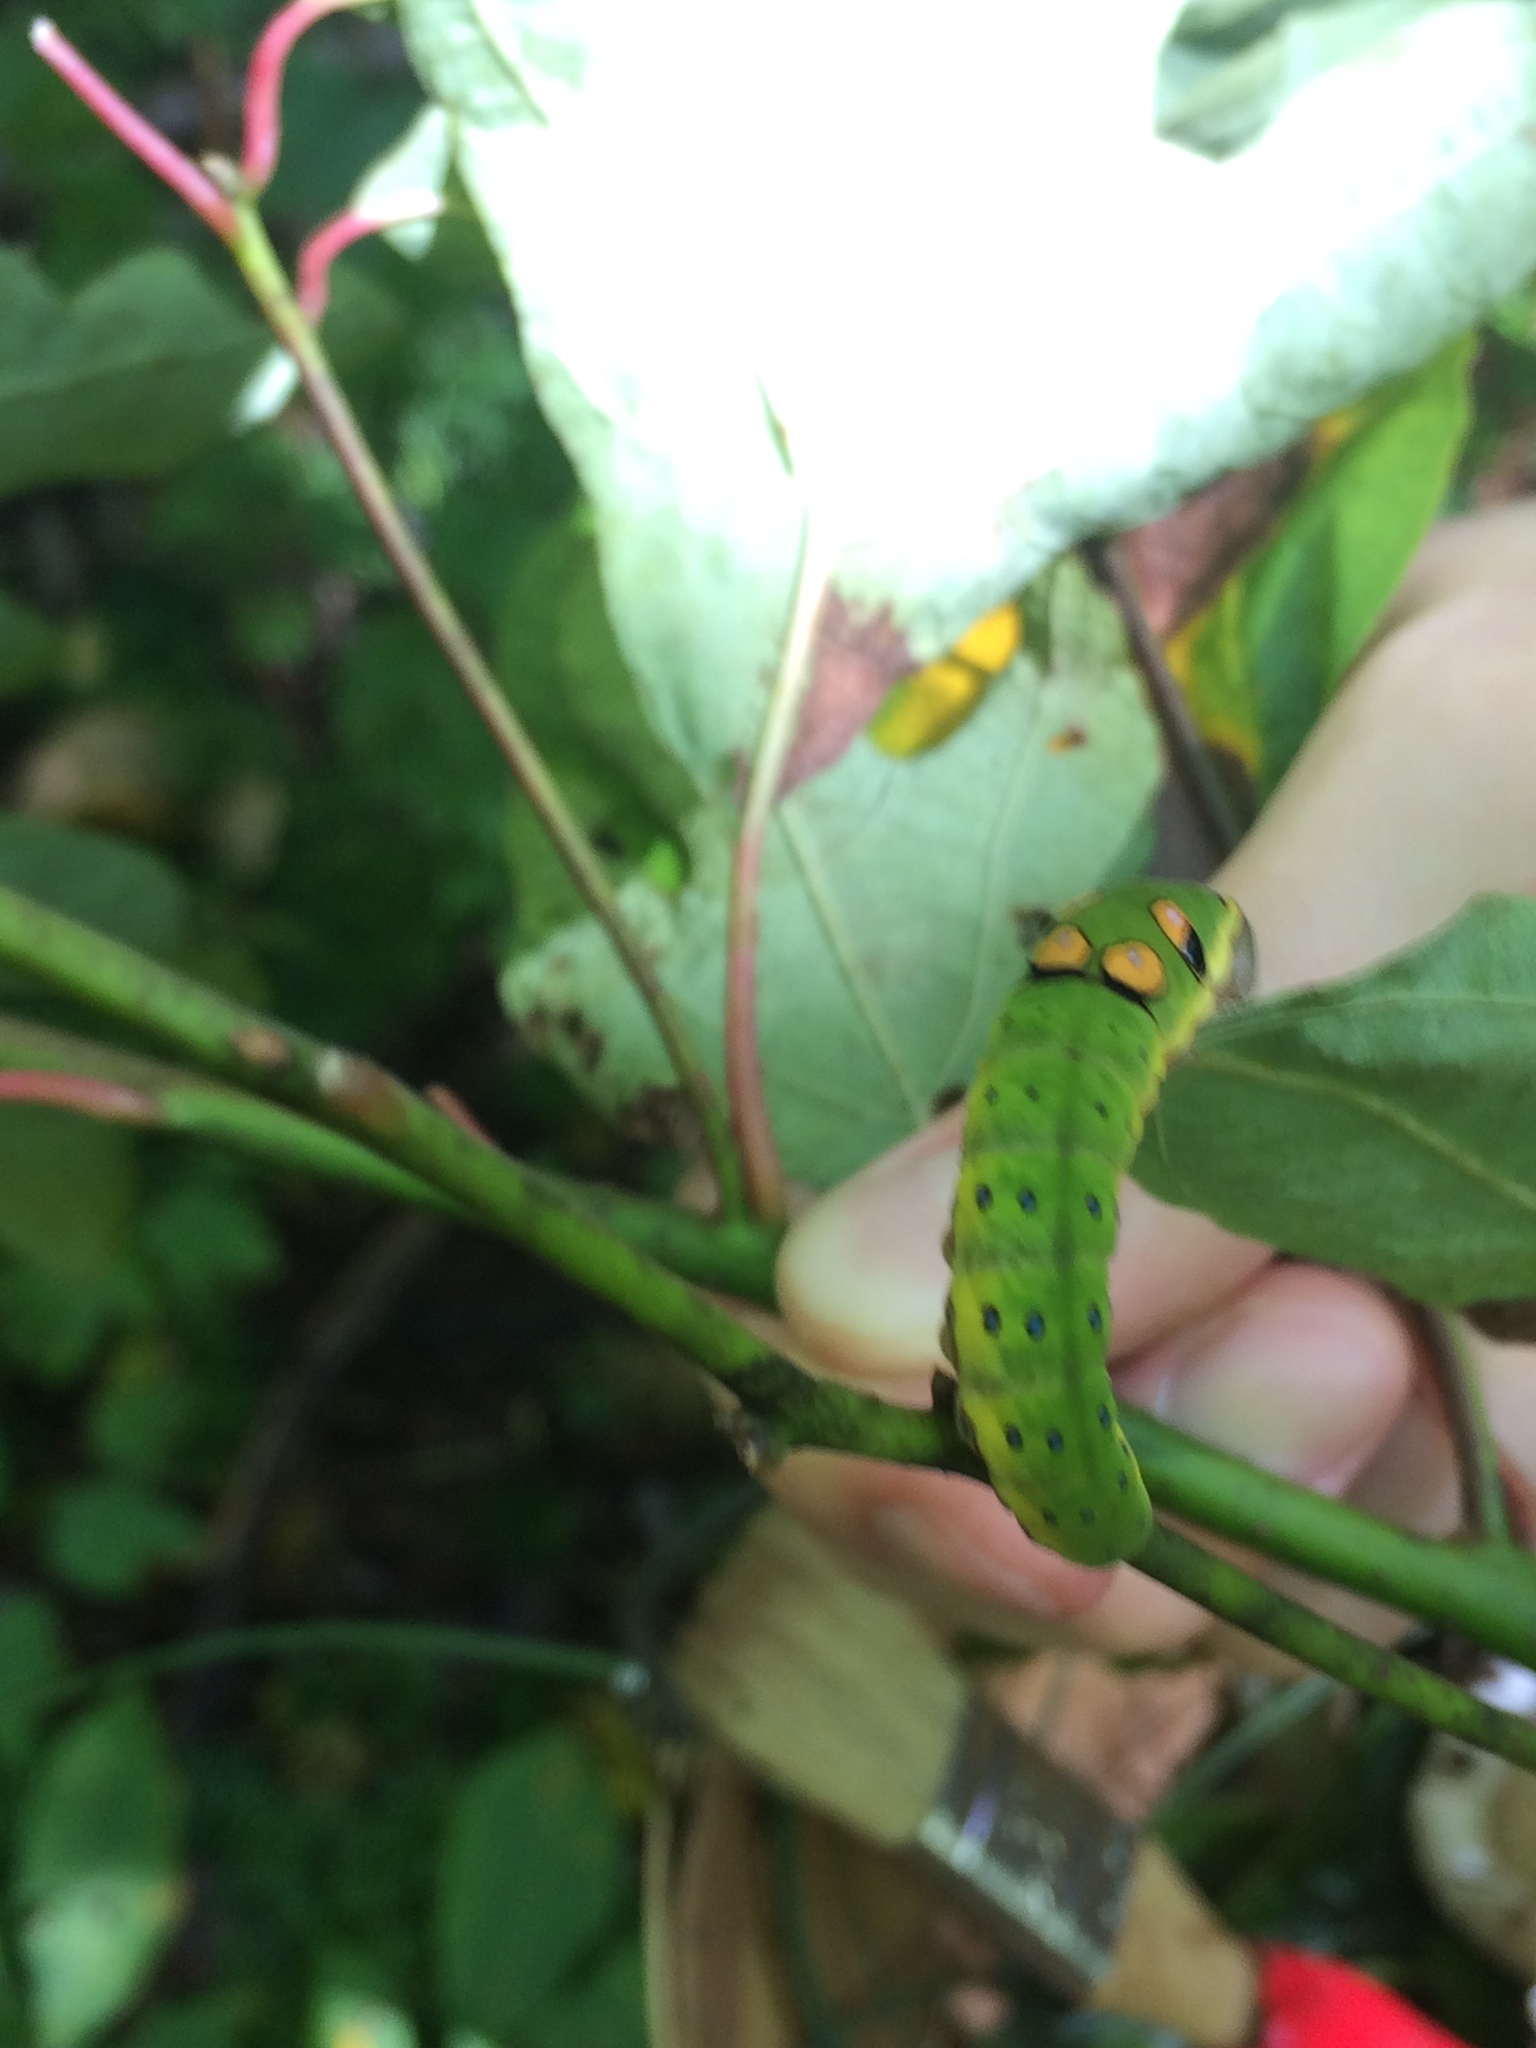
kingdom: Animalia
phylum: Arthropoda
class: Insecta
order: Lepidoptera
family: Papilionidae
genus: Papilio
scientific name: Papilio troilus
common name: Spicebush swallowtail
